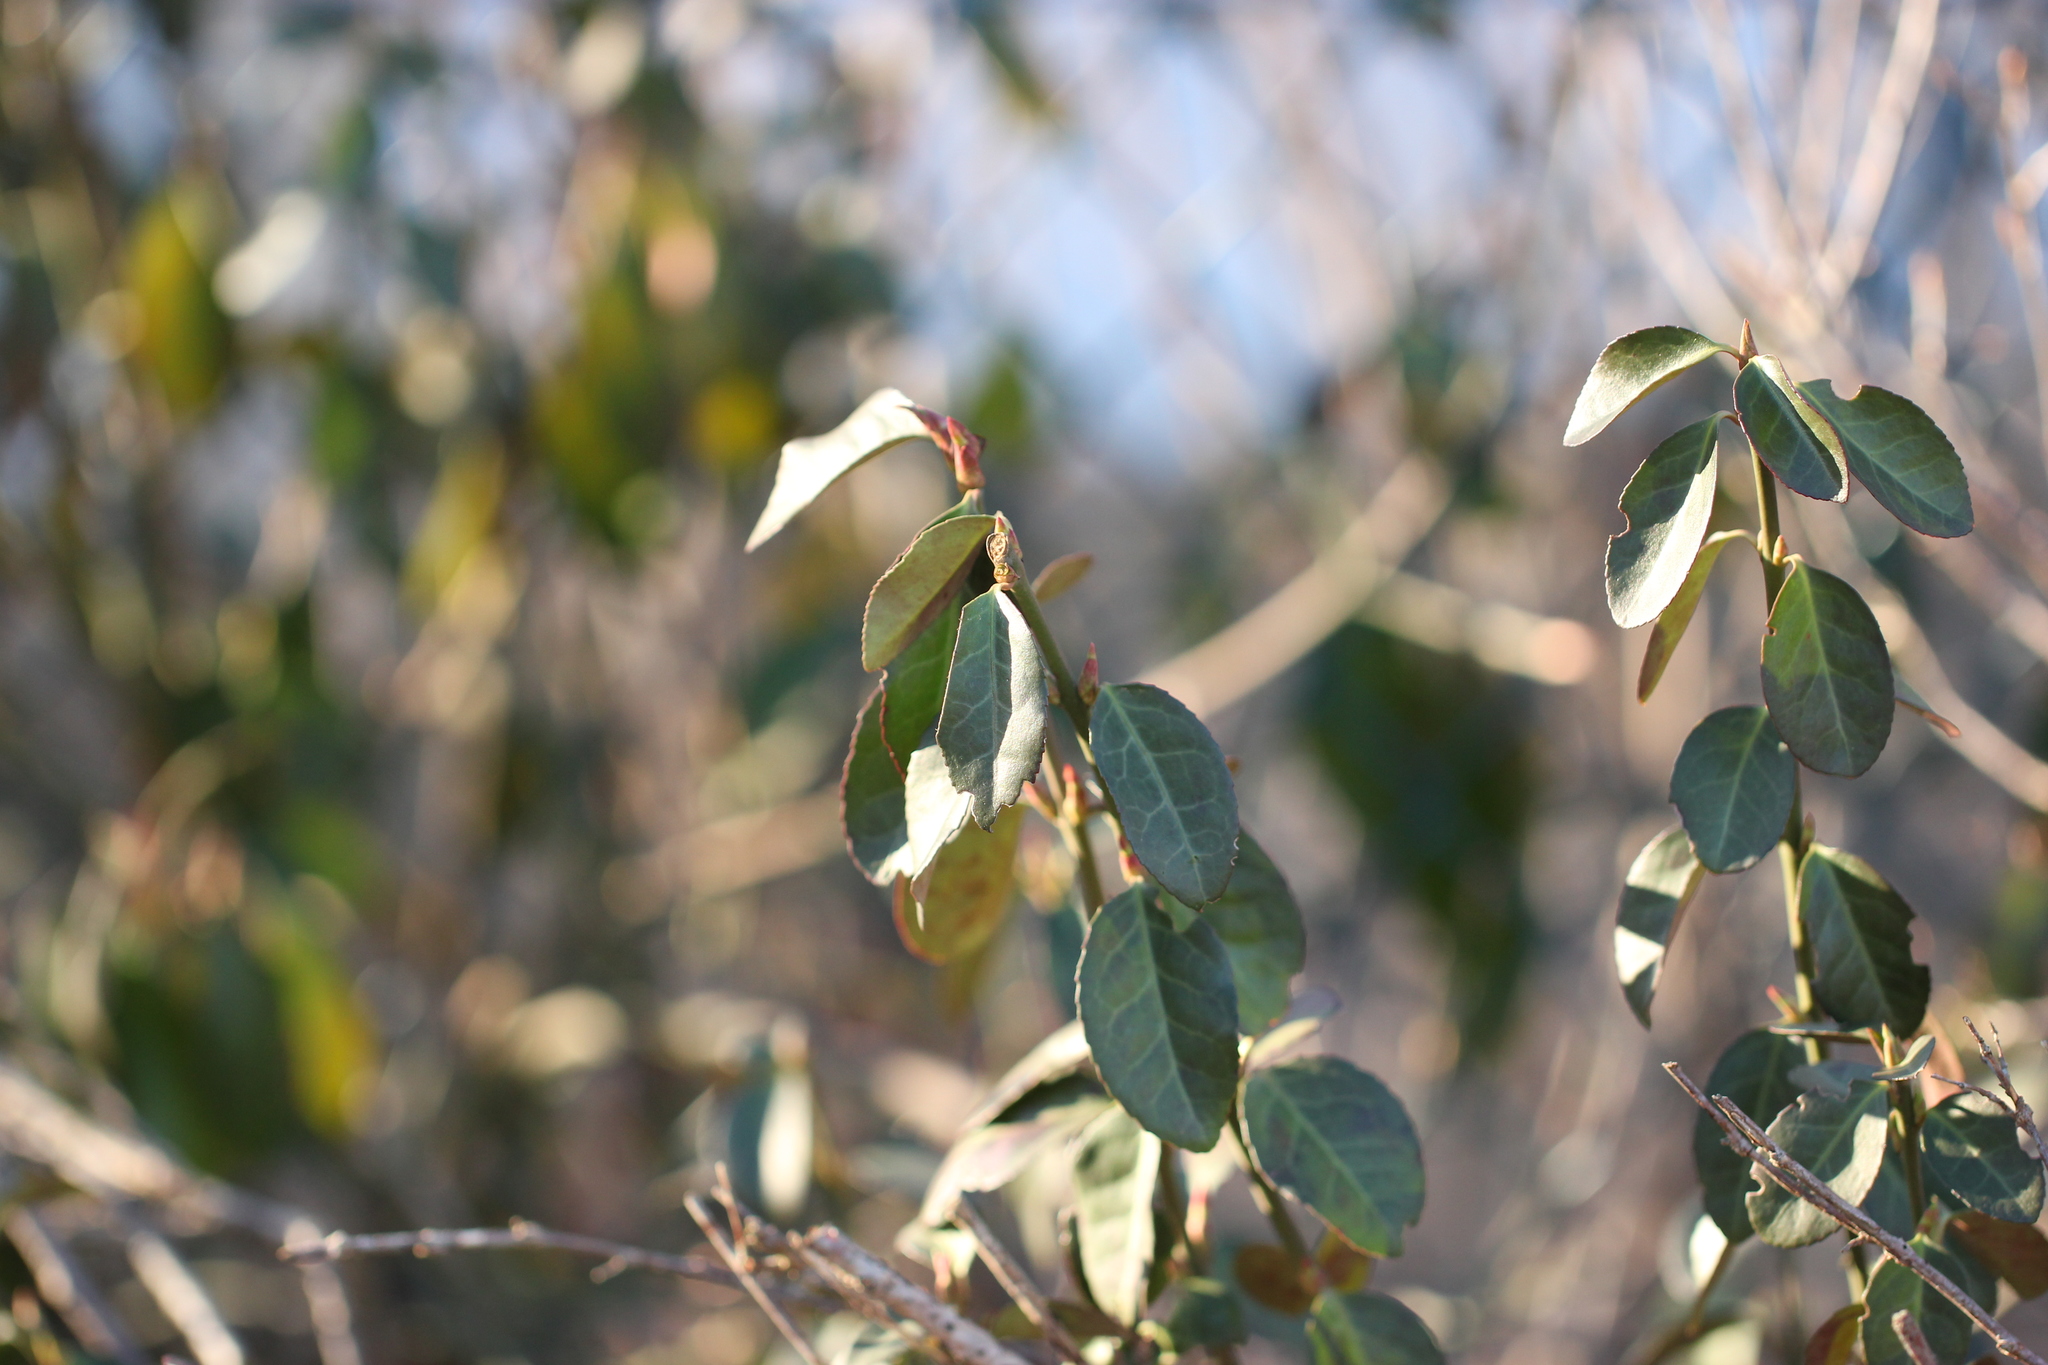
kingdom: Plantae
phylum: Tracheophyta
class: Magnoliopsida
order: Celastrales
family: Celastraceae
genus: Euonymus
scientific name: Euonymus fortunei
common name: Climbing euonymus
